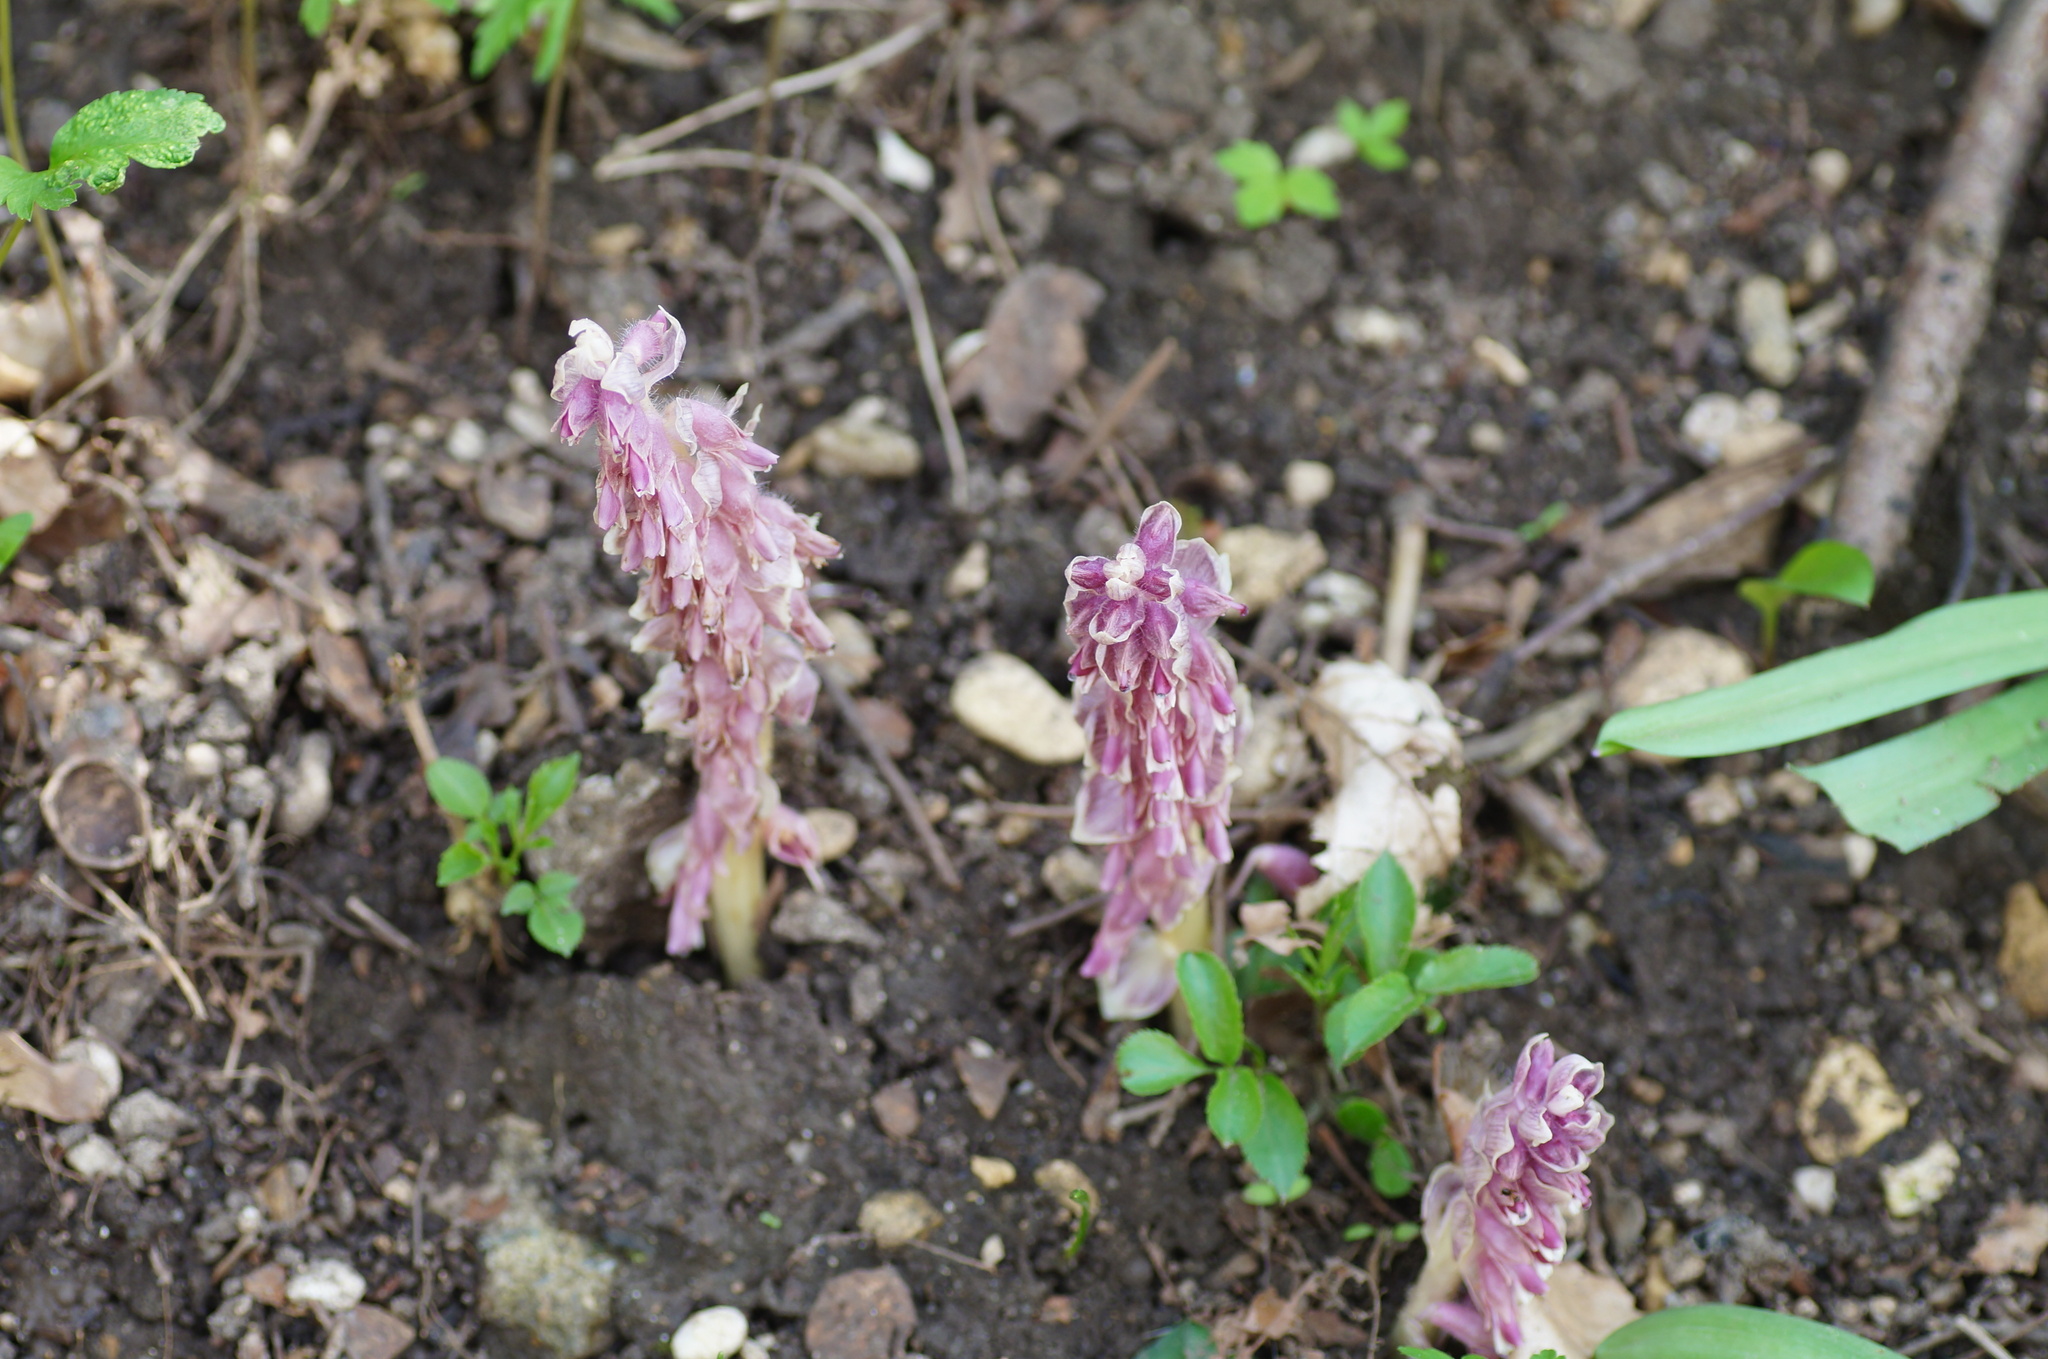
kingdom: Plantae
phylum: Tracheophyta
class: Magnoliopsida
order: Lamiales
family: Orobanchaceae
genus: Lathraea
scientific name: Lathraea squamaria
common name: Toothwort
